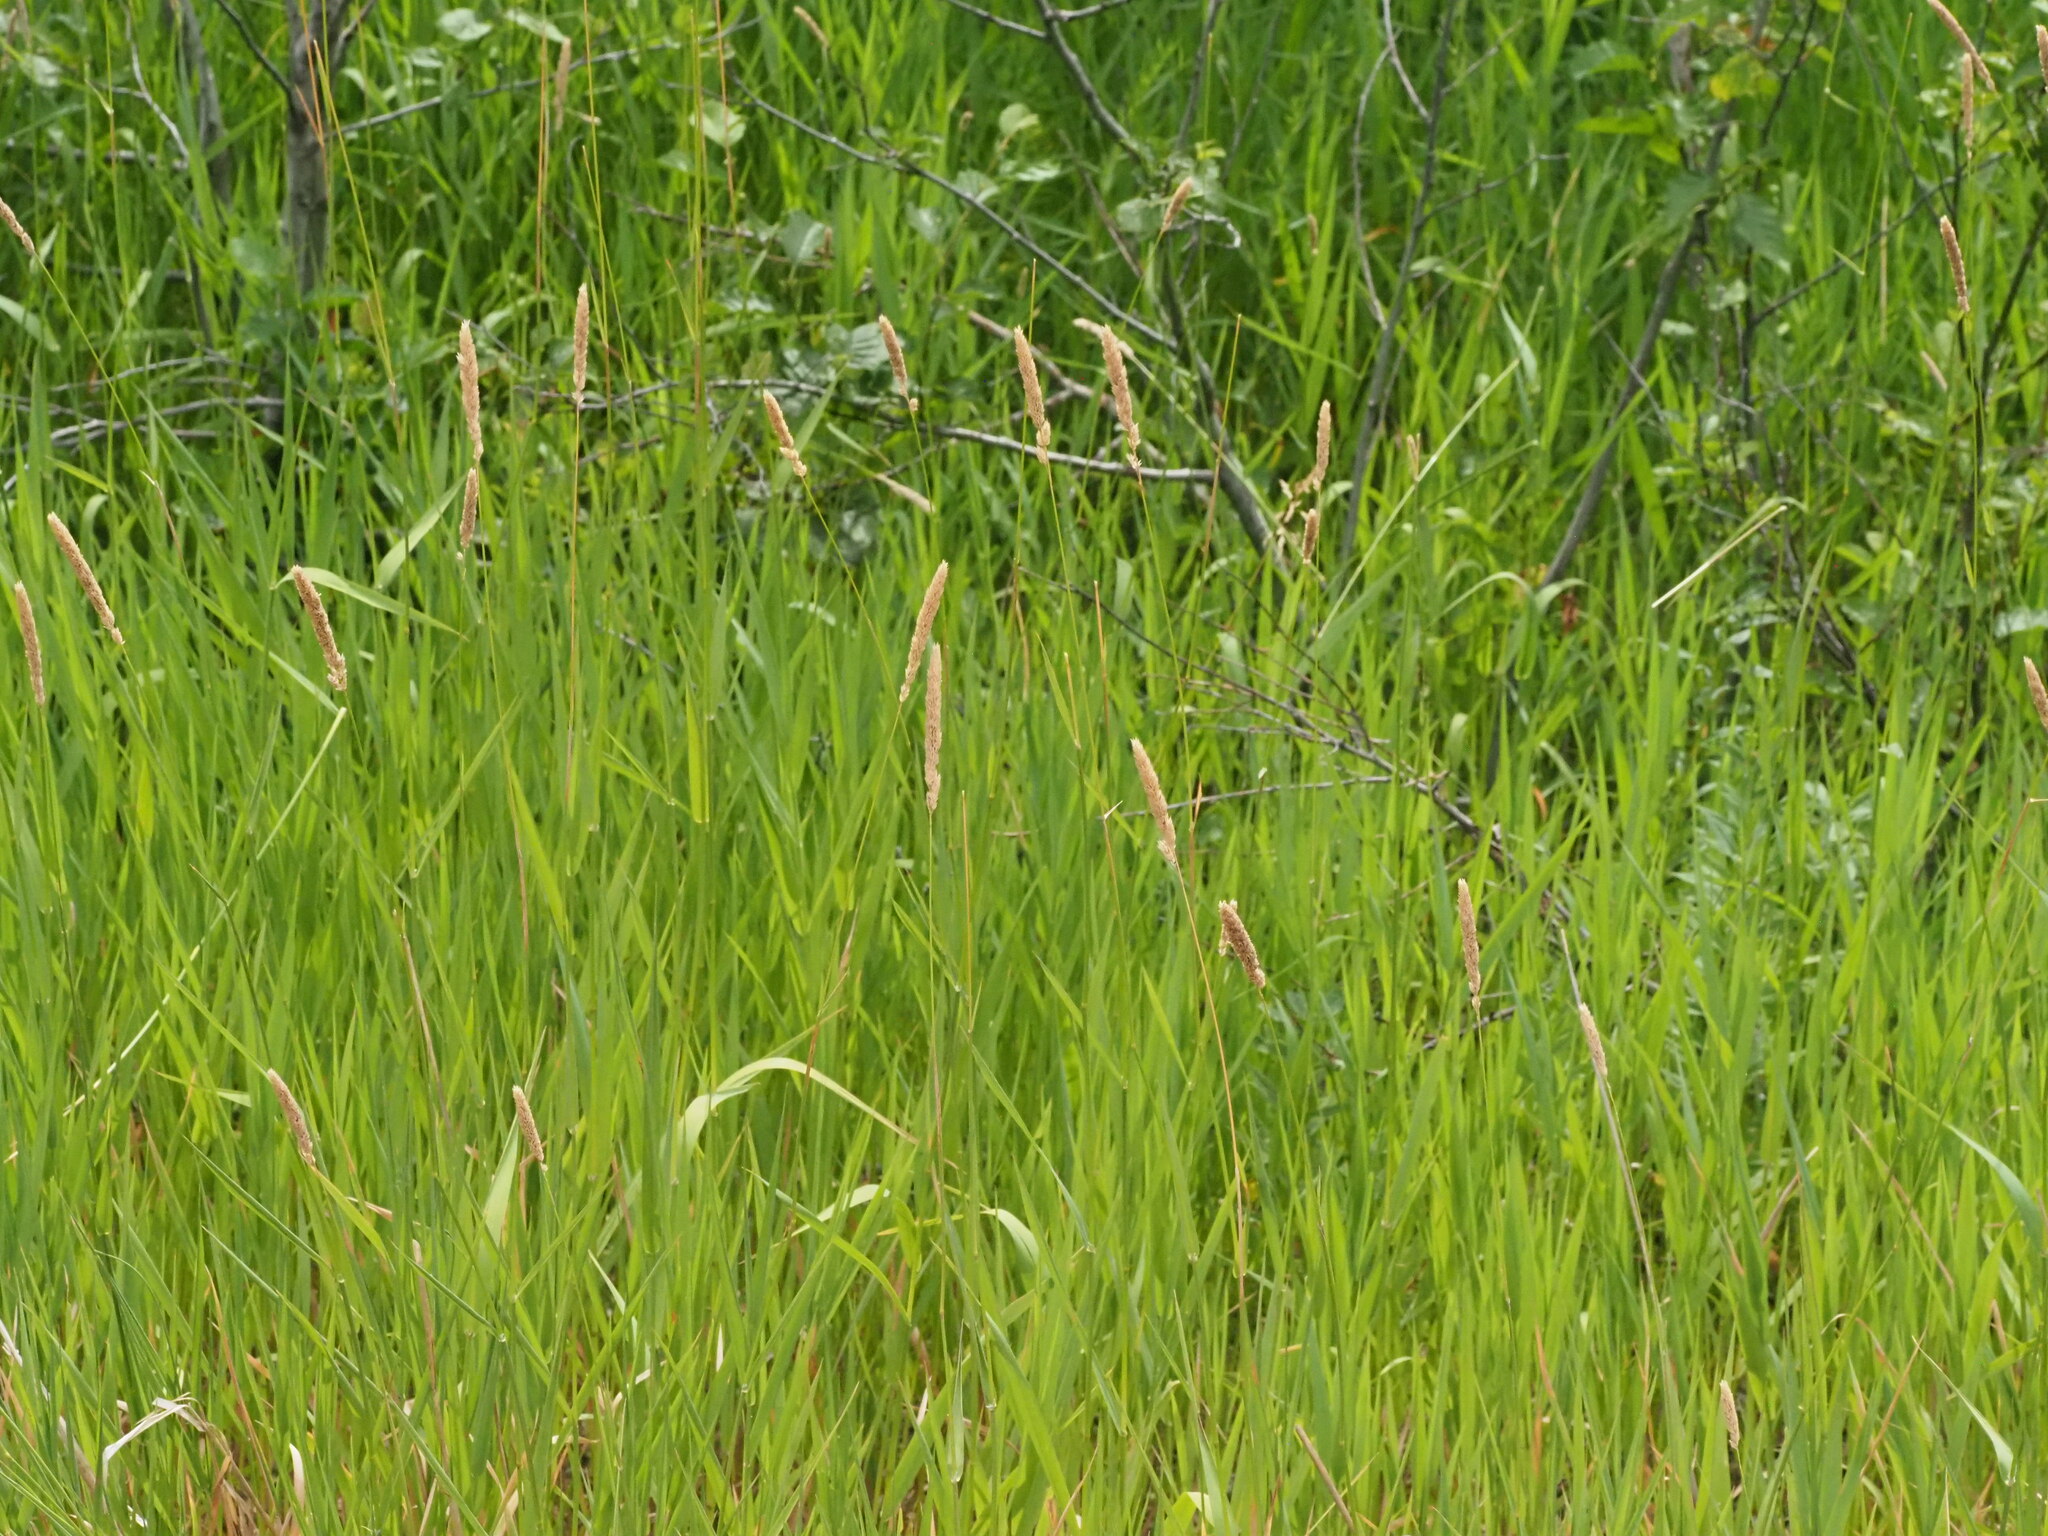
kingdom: Plantae
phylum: Tracheophyta
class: Liliopsida
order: Poales
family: Poaceae
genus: Phalaris
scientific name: Phalaris arundinacea
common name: Reed canary-grass
